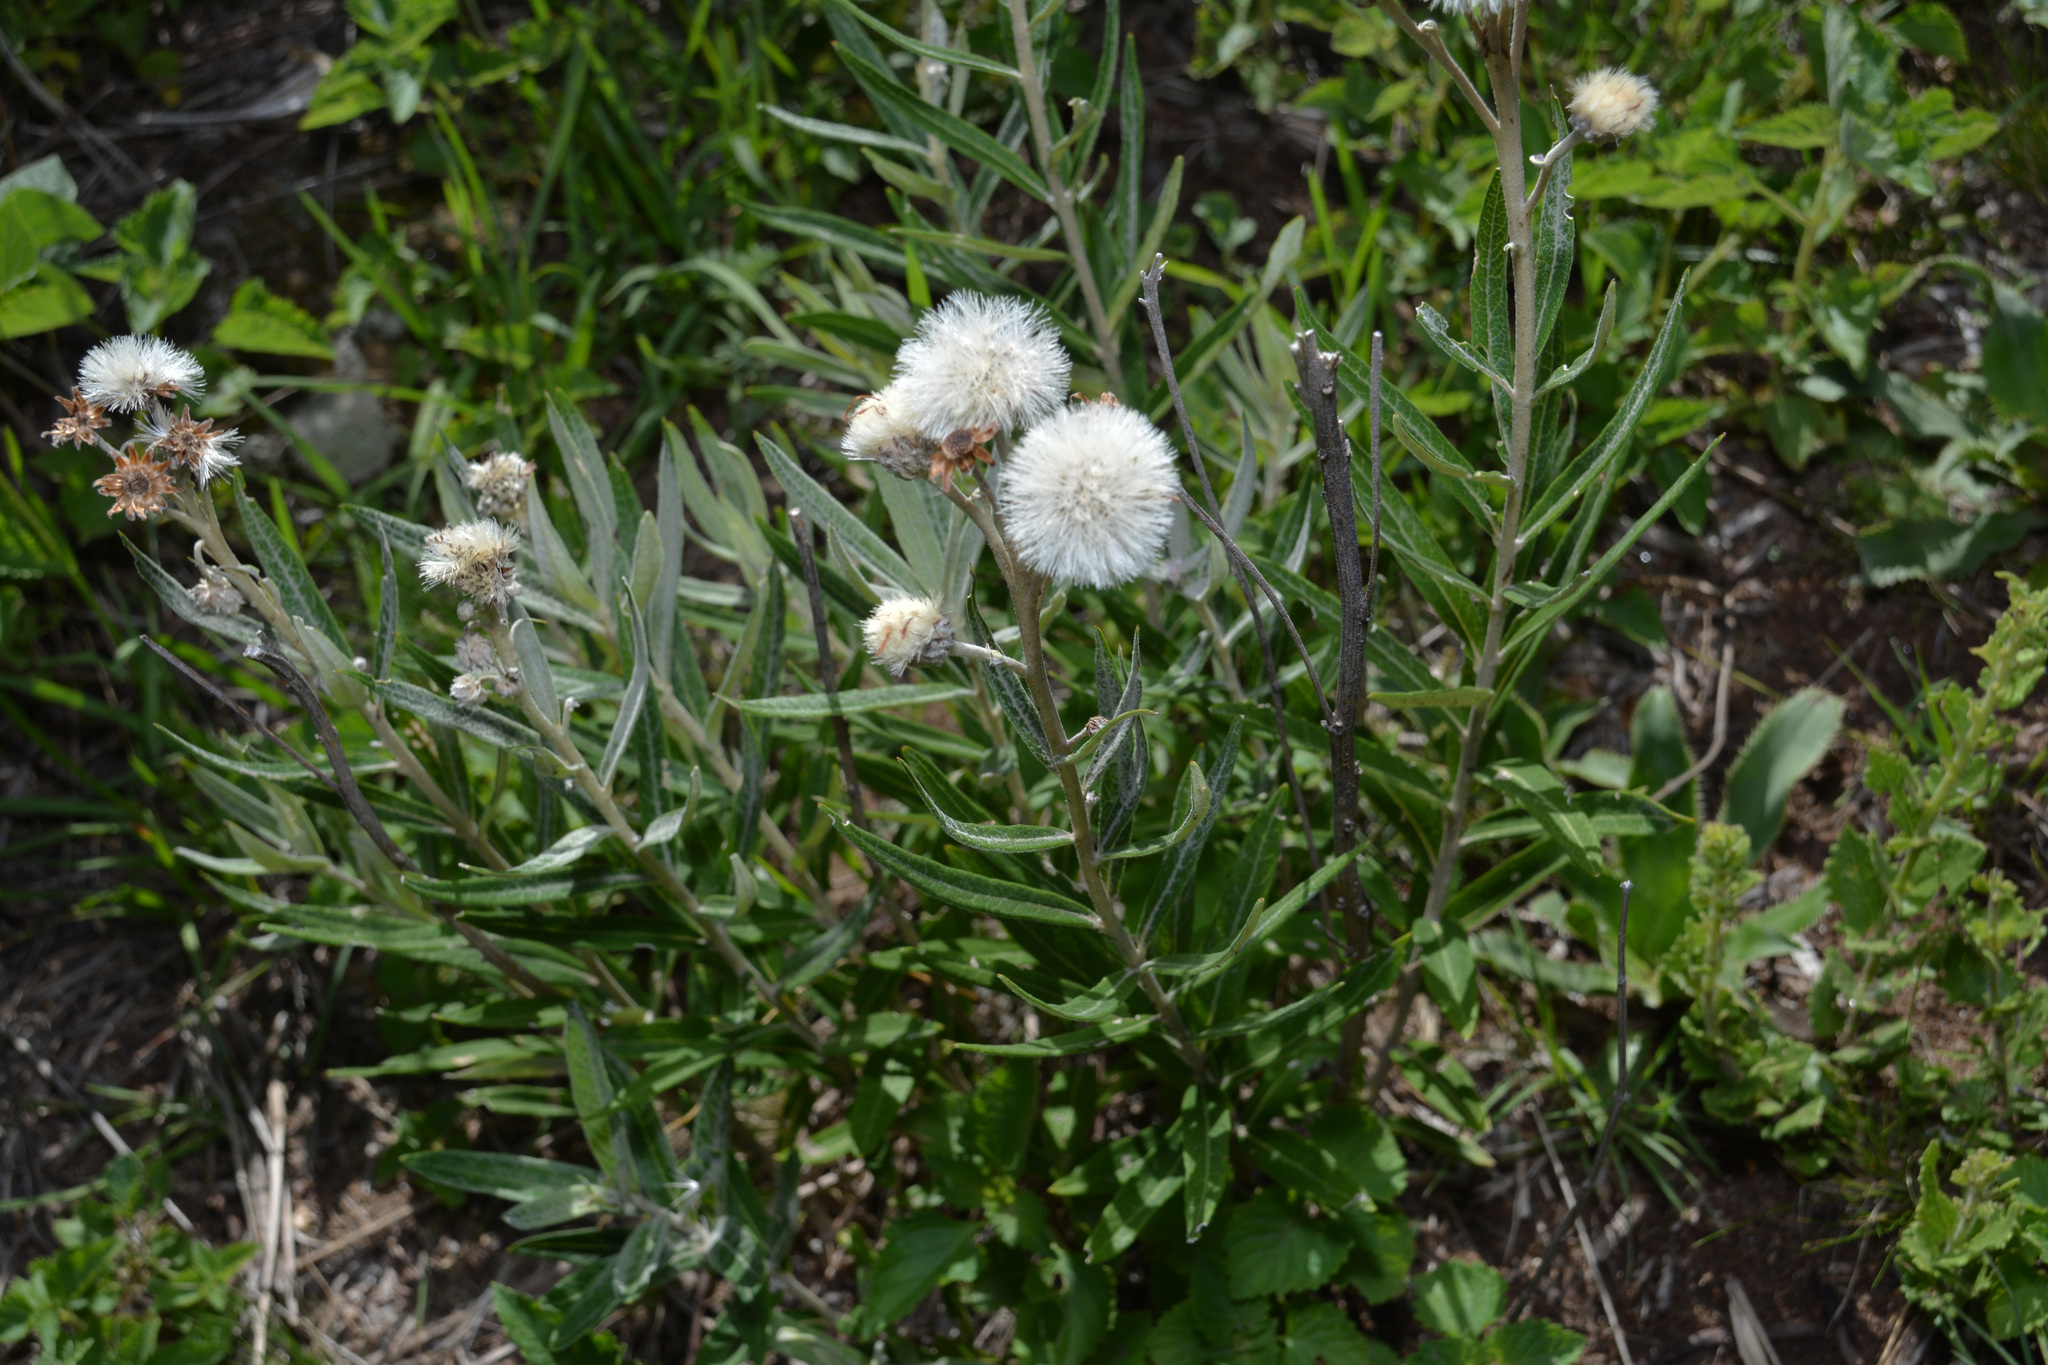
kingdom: Plantae
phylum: Tracheophyta
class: Magnoliopsida
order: Asterales
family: Asteraceae
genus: Lessingianthus
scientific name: Lessingianthus mollissimus
